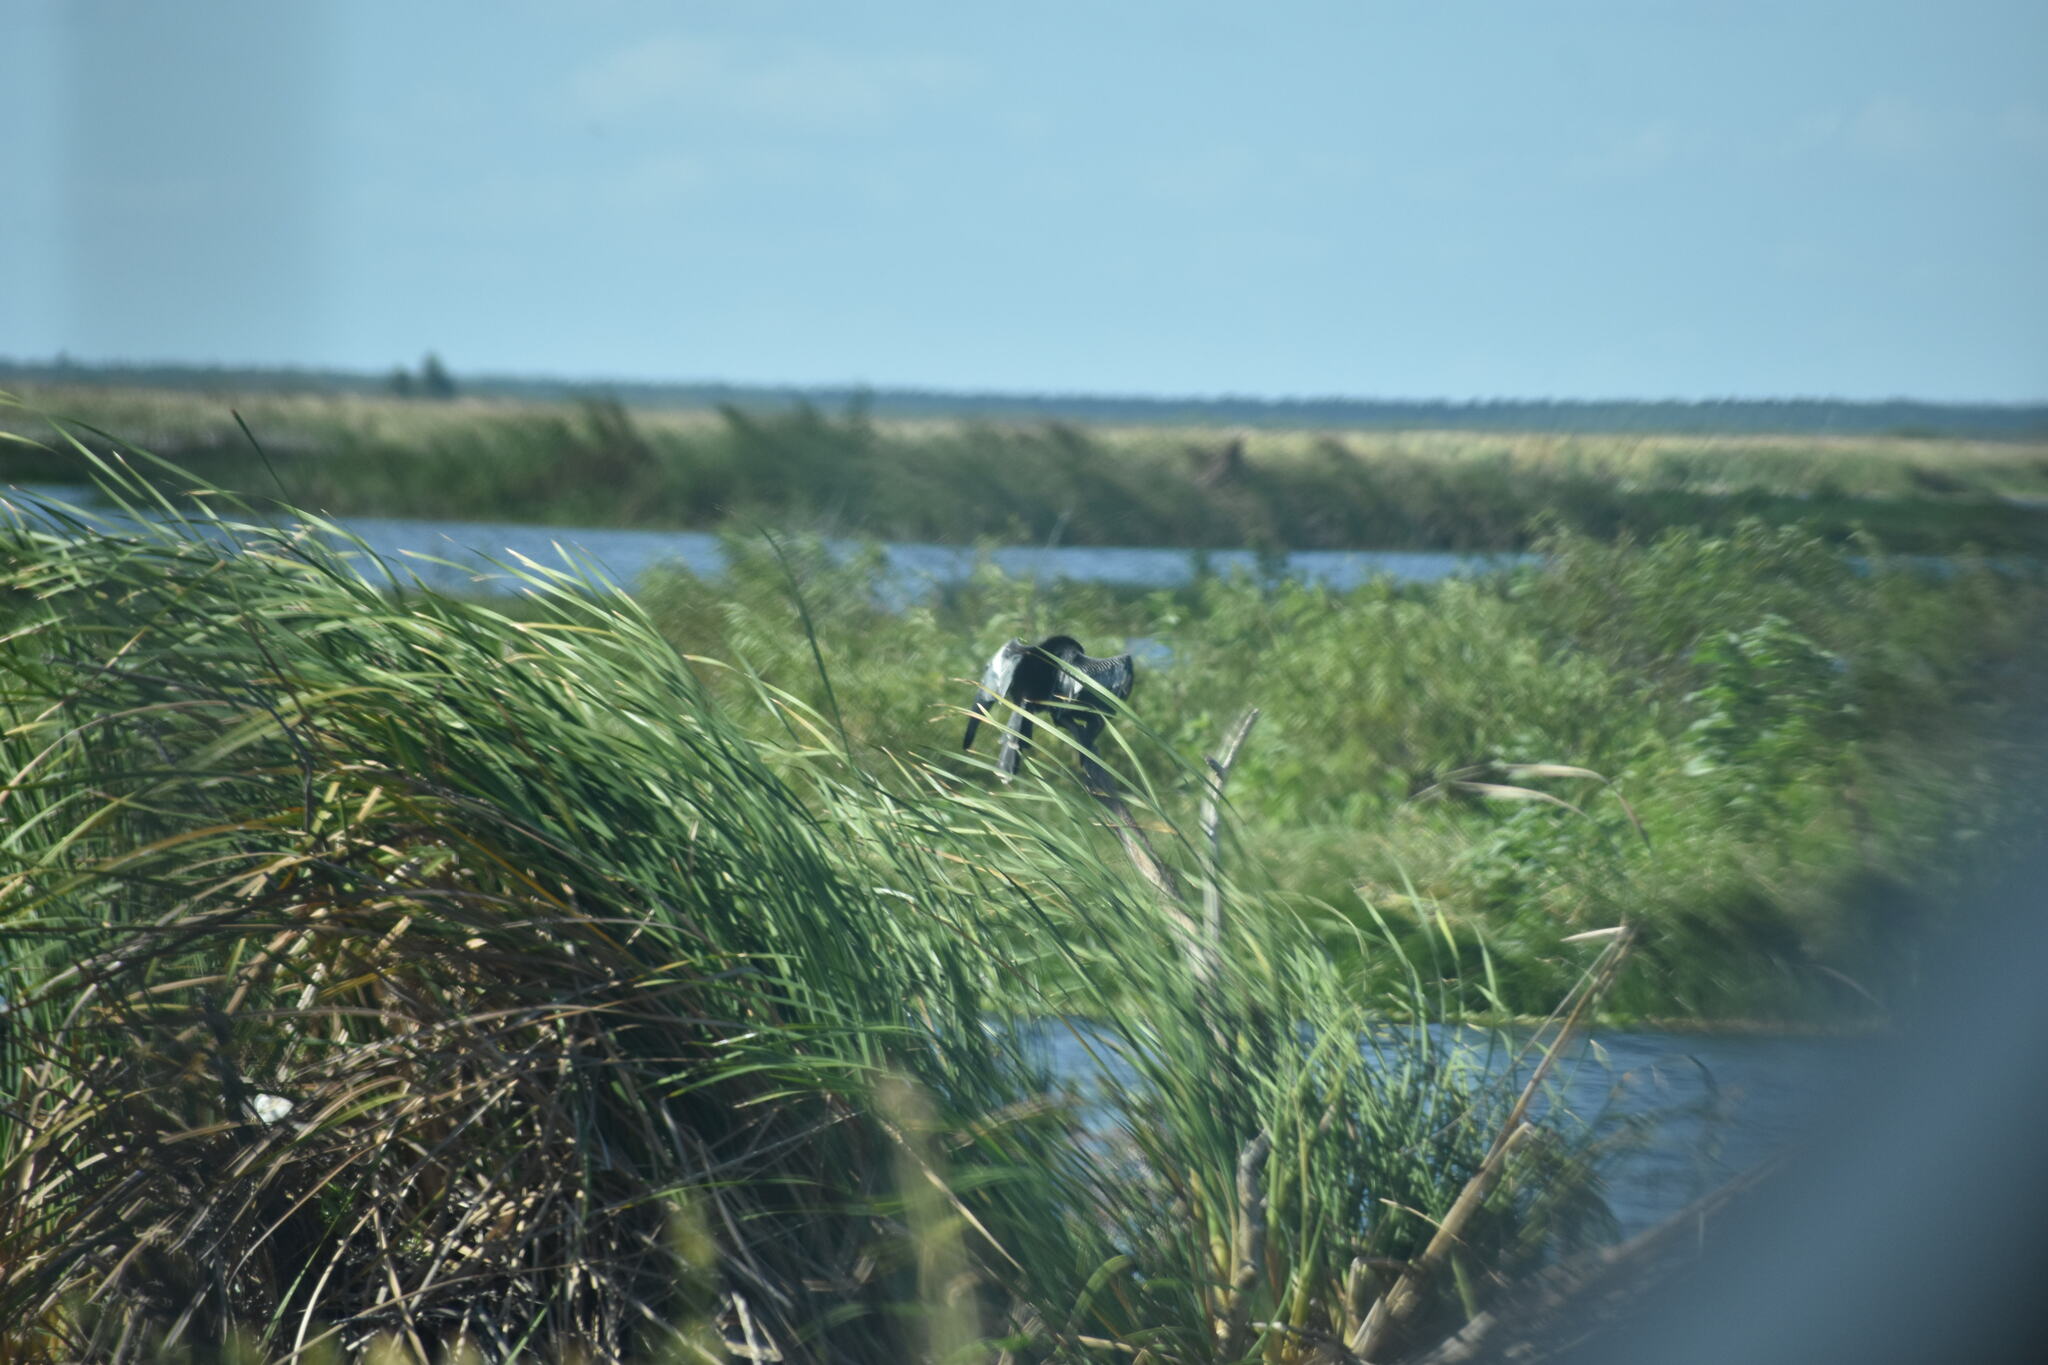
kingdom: Animalia
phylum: Chordata
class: Aves
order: Suliformes
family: Anhingidae
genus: Anhinga
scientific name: Anhinga anhinga
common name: Anhinga
